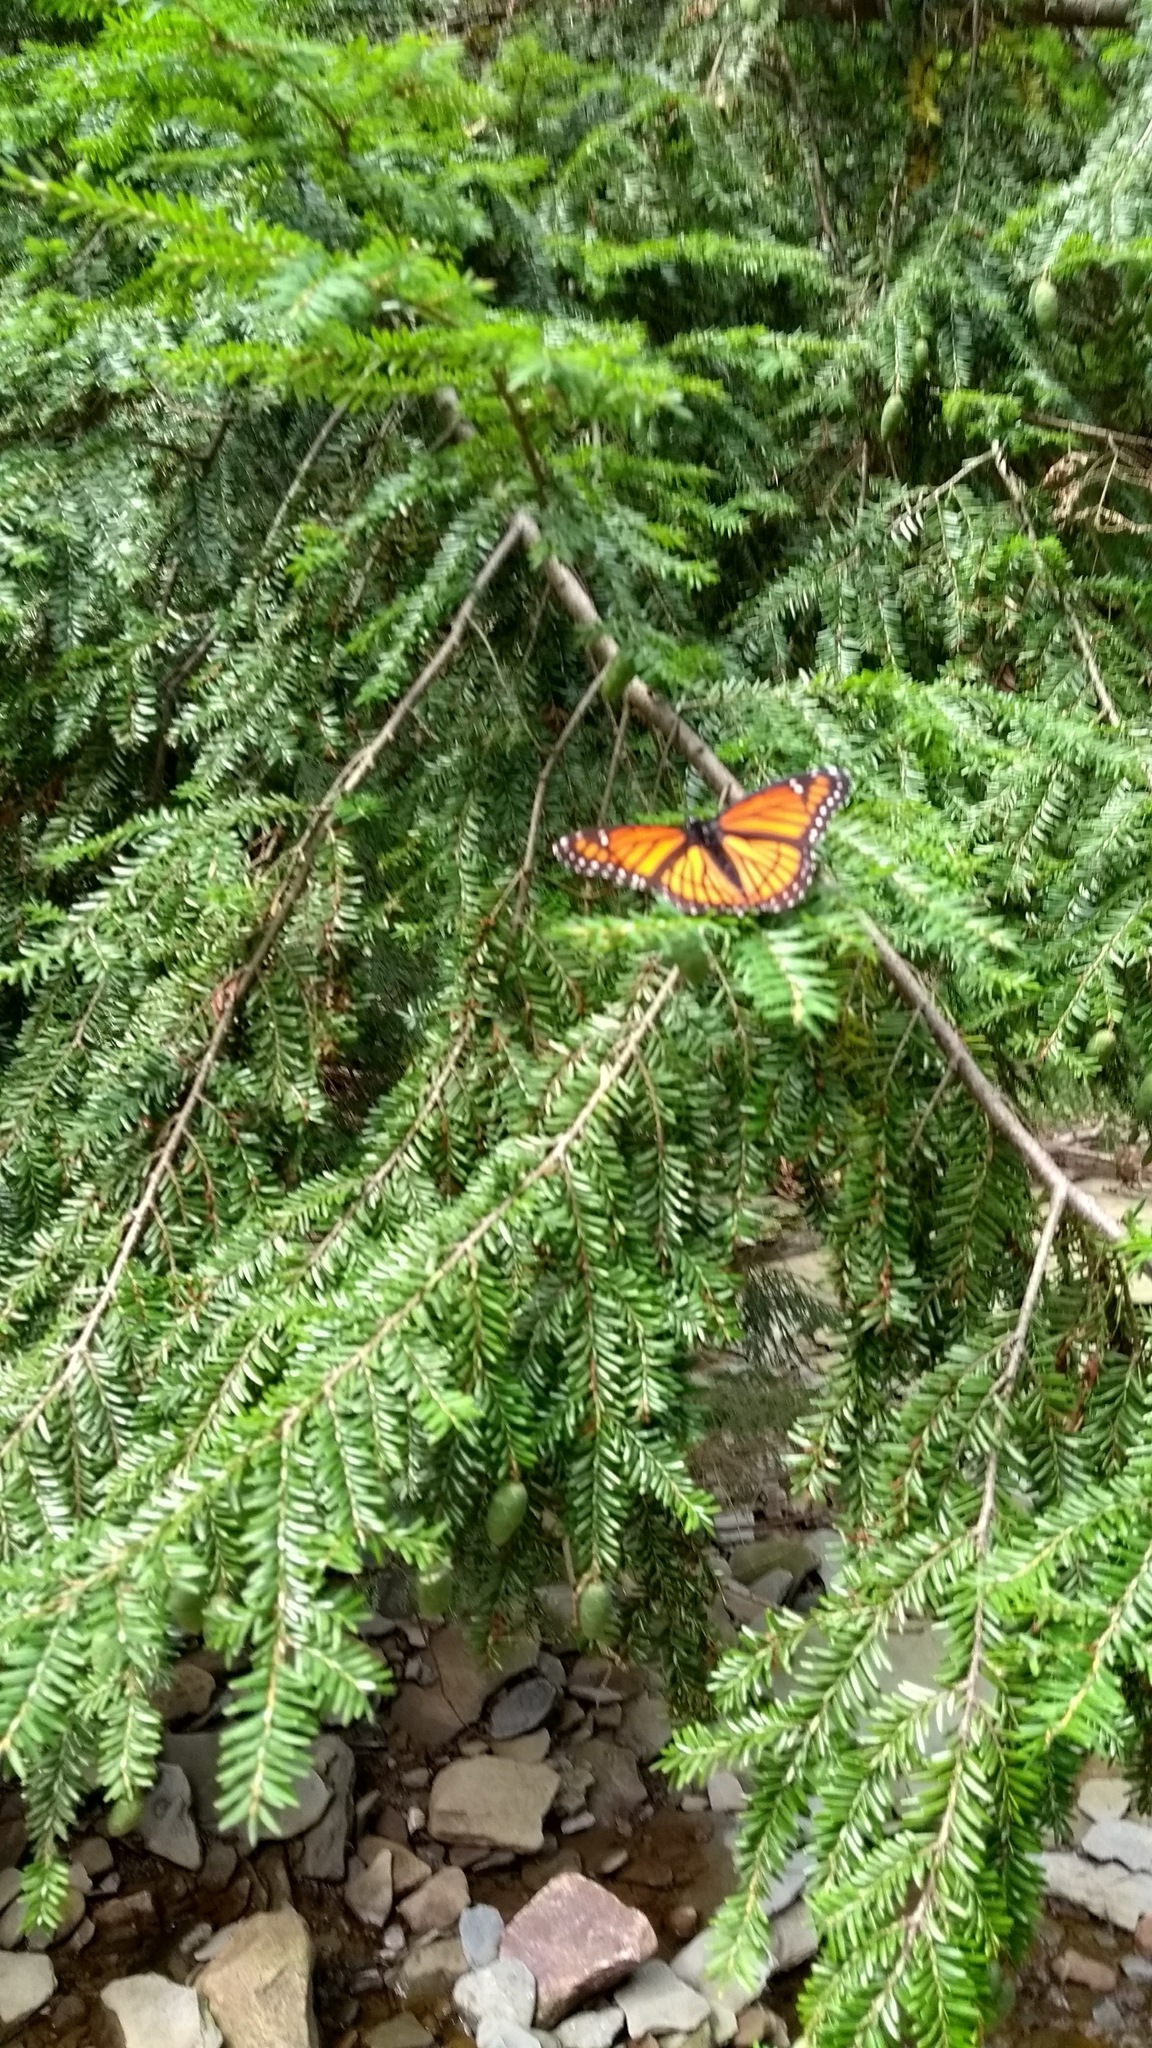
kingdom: Plantae
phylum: Tracheophyta
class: Pinopsida
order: Pinales
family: Pinaceae
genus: Tsuga
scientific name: Tsuga canadensis
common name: Eastern hemlock
